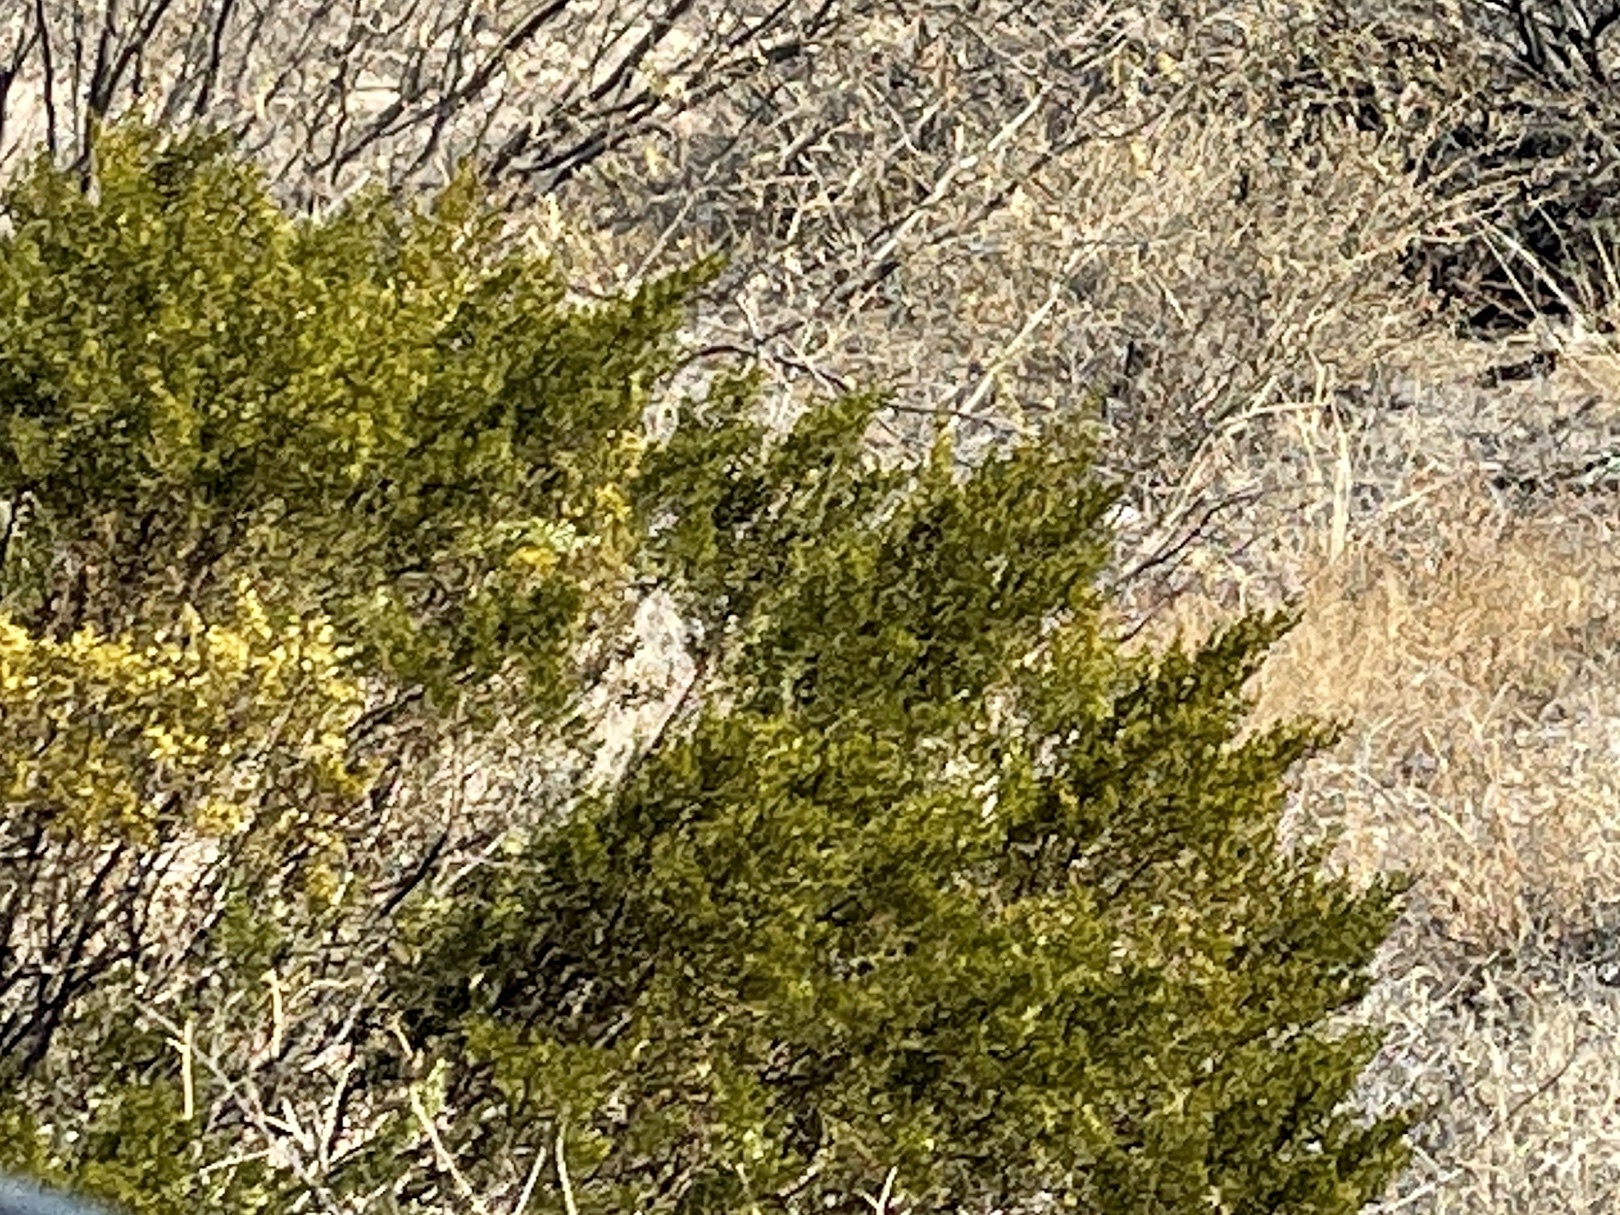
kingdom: Plantae
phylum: Tracheophyta
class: Magnoliopsida
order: Zygophyllales
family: Zygophyllaceae
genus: Larrea
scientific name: Larrea tridentata
